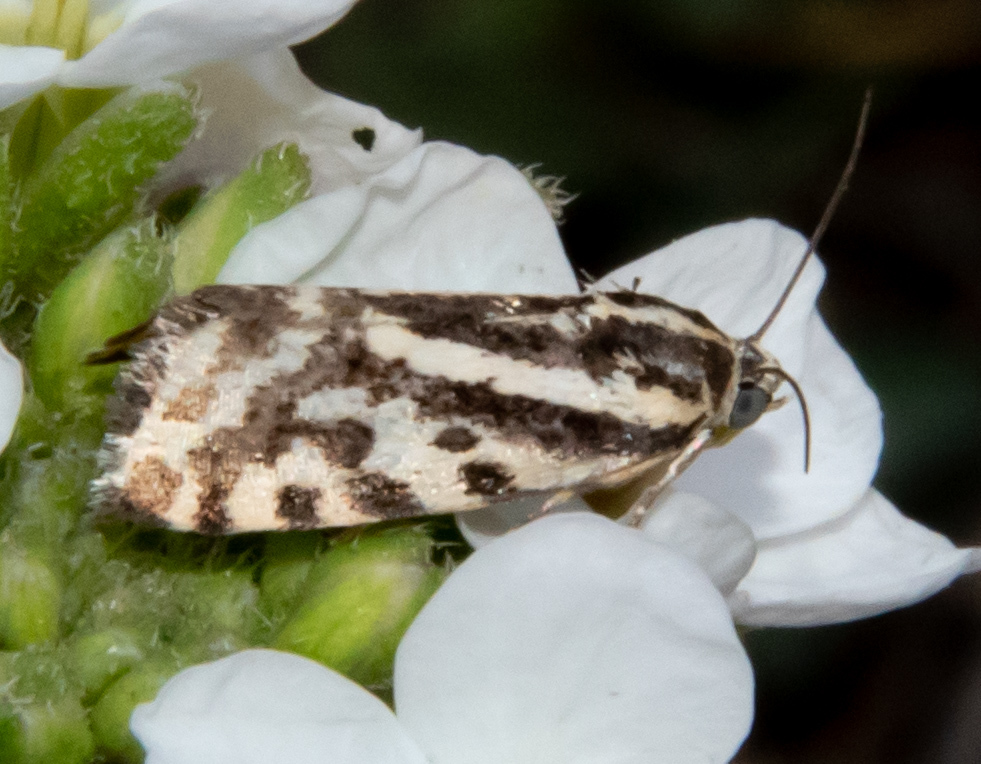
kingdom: Animalia
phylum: Arthropoda
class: Insecta
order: Lepidoptera
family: Noctuidae
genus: Acontia
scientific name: Acontia trabealis
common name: Spotted sulphur
